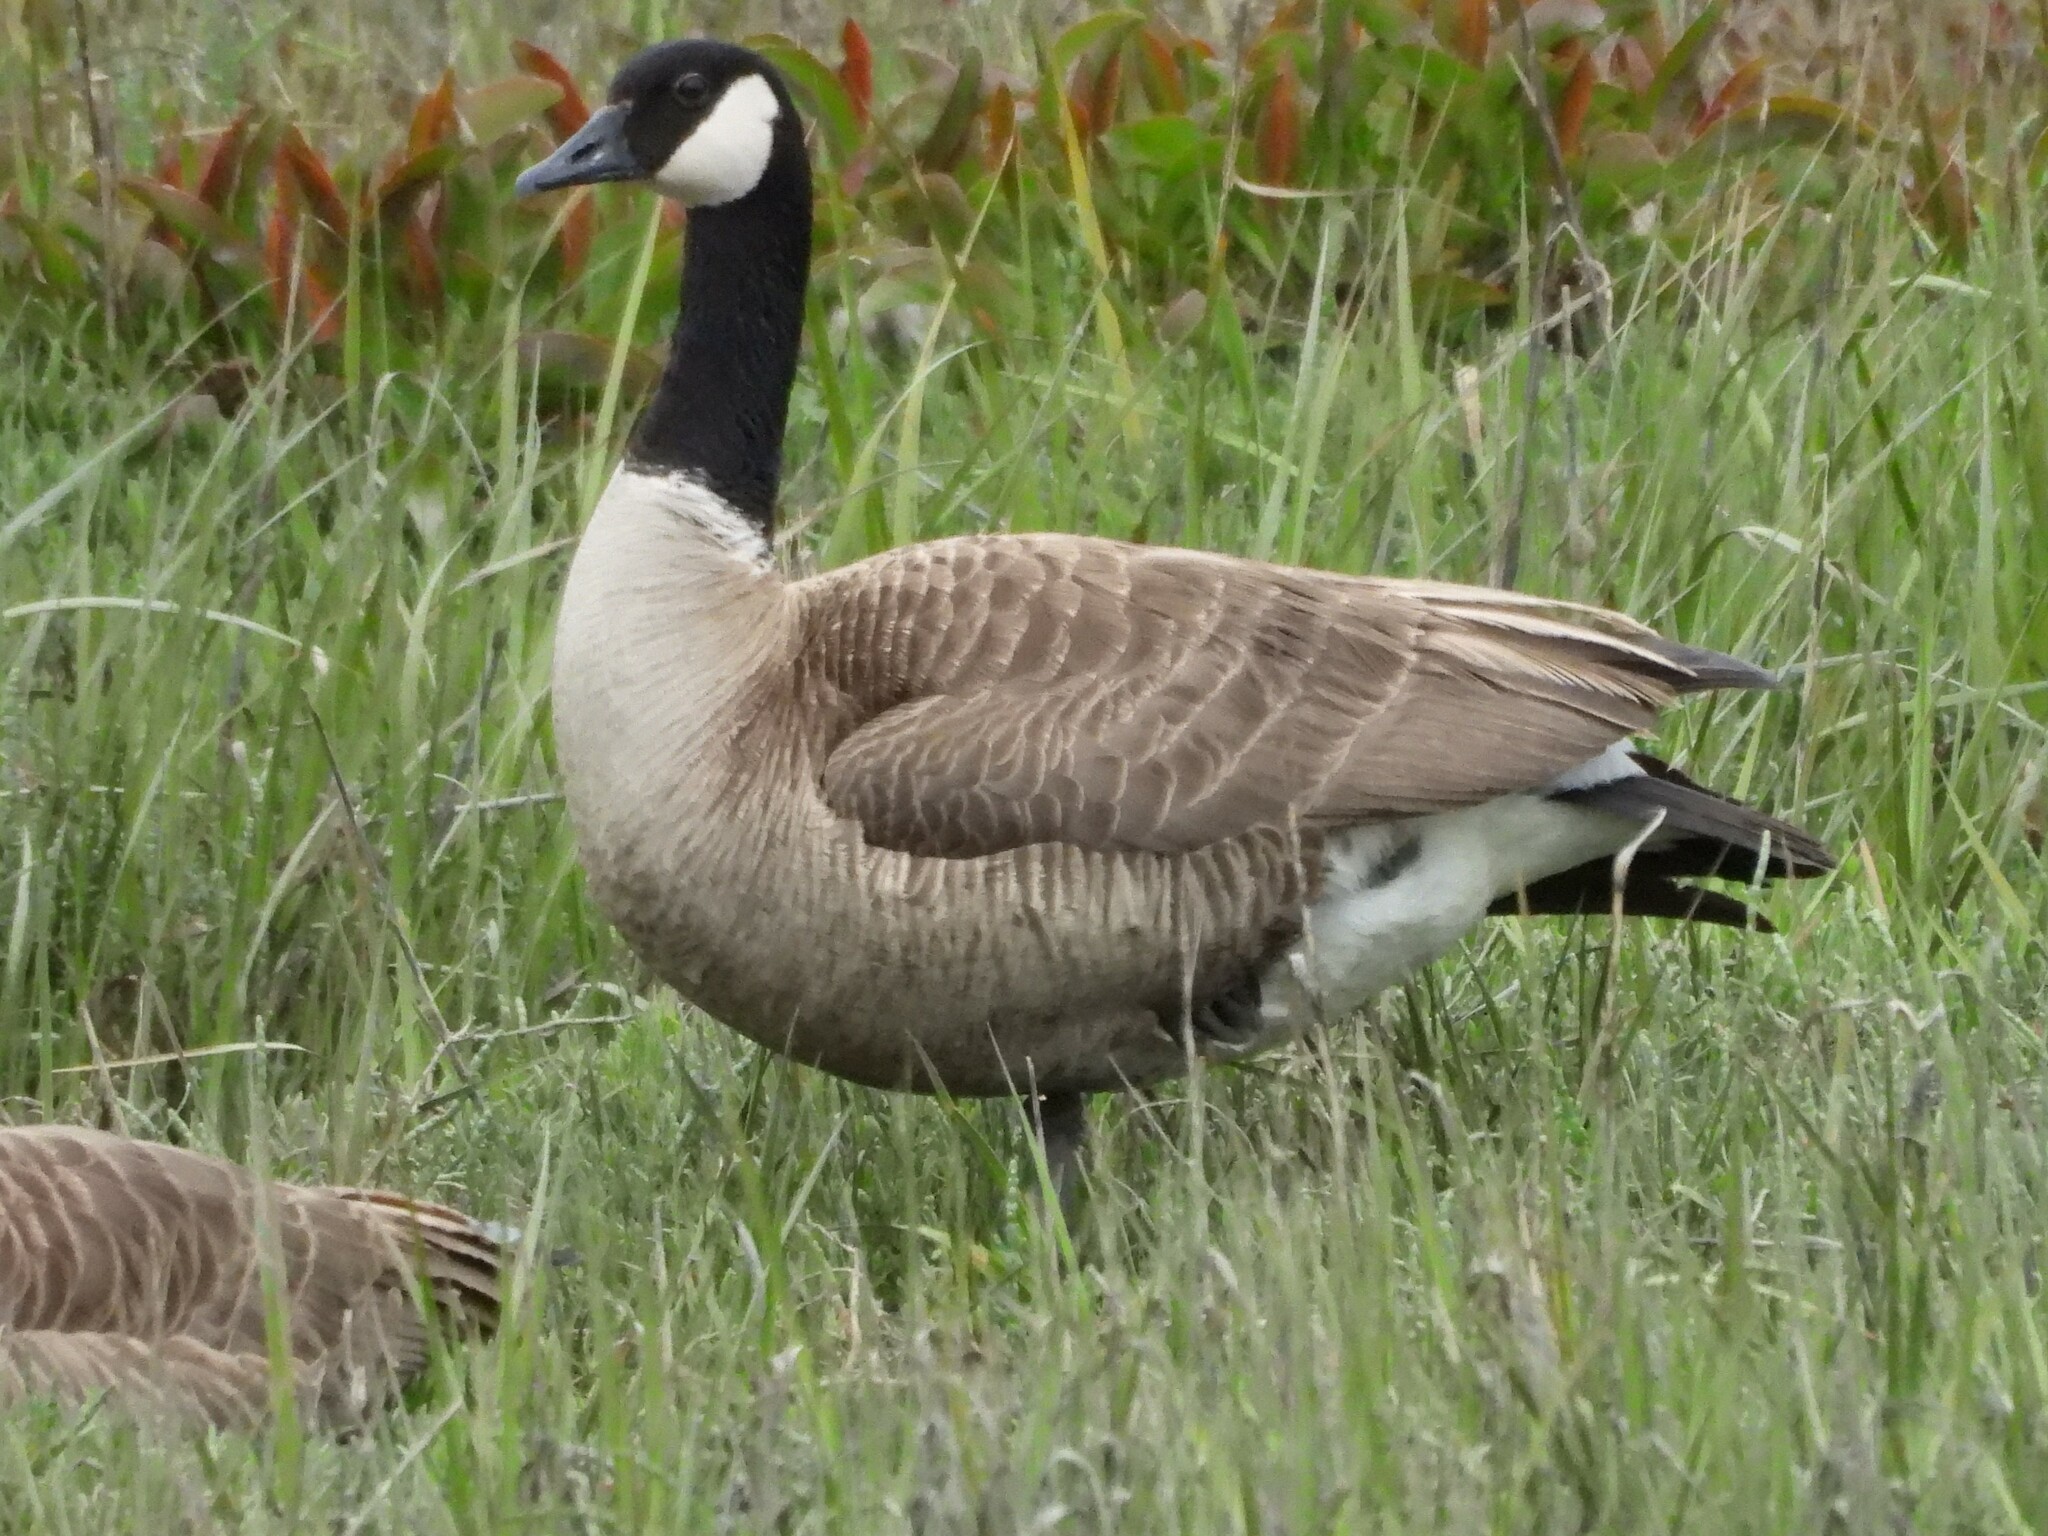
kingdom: Animalia
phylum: Chordata
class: Aves
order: Anseriformes
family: Anatidae
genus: Branta
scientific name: Branta canadensis
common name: Canada goose
